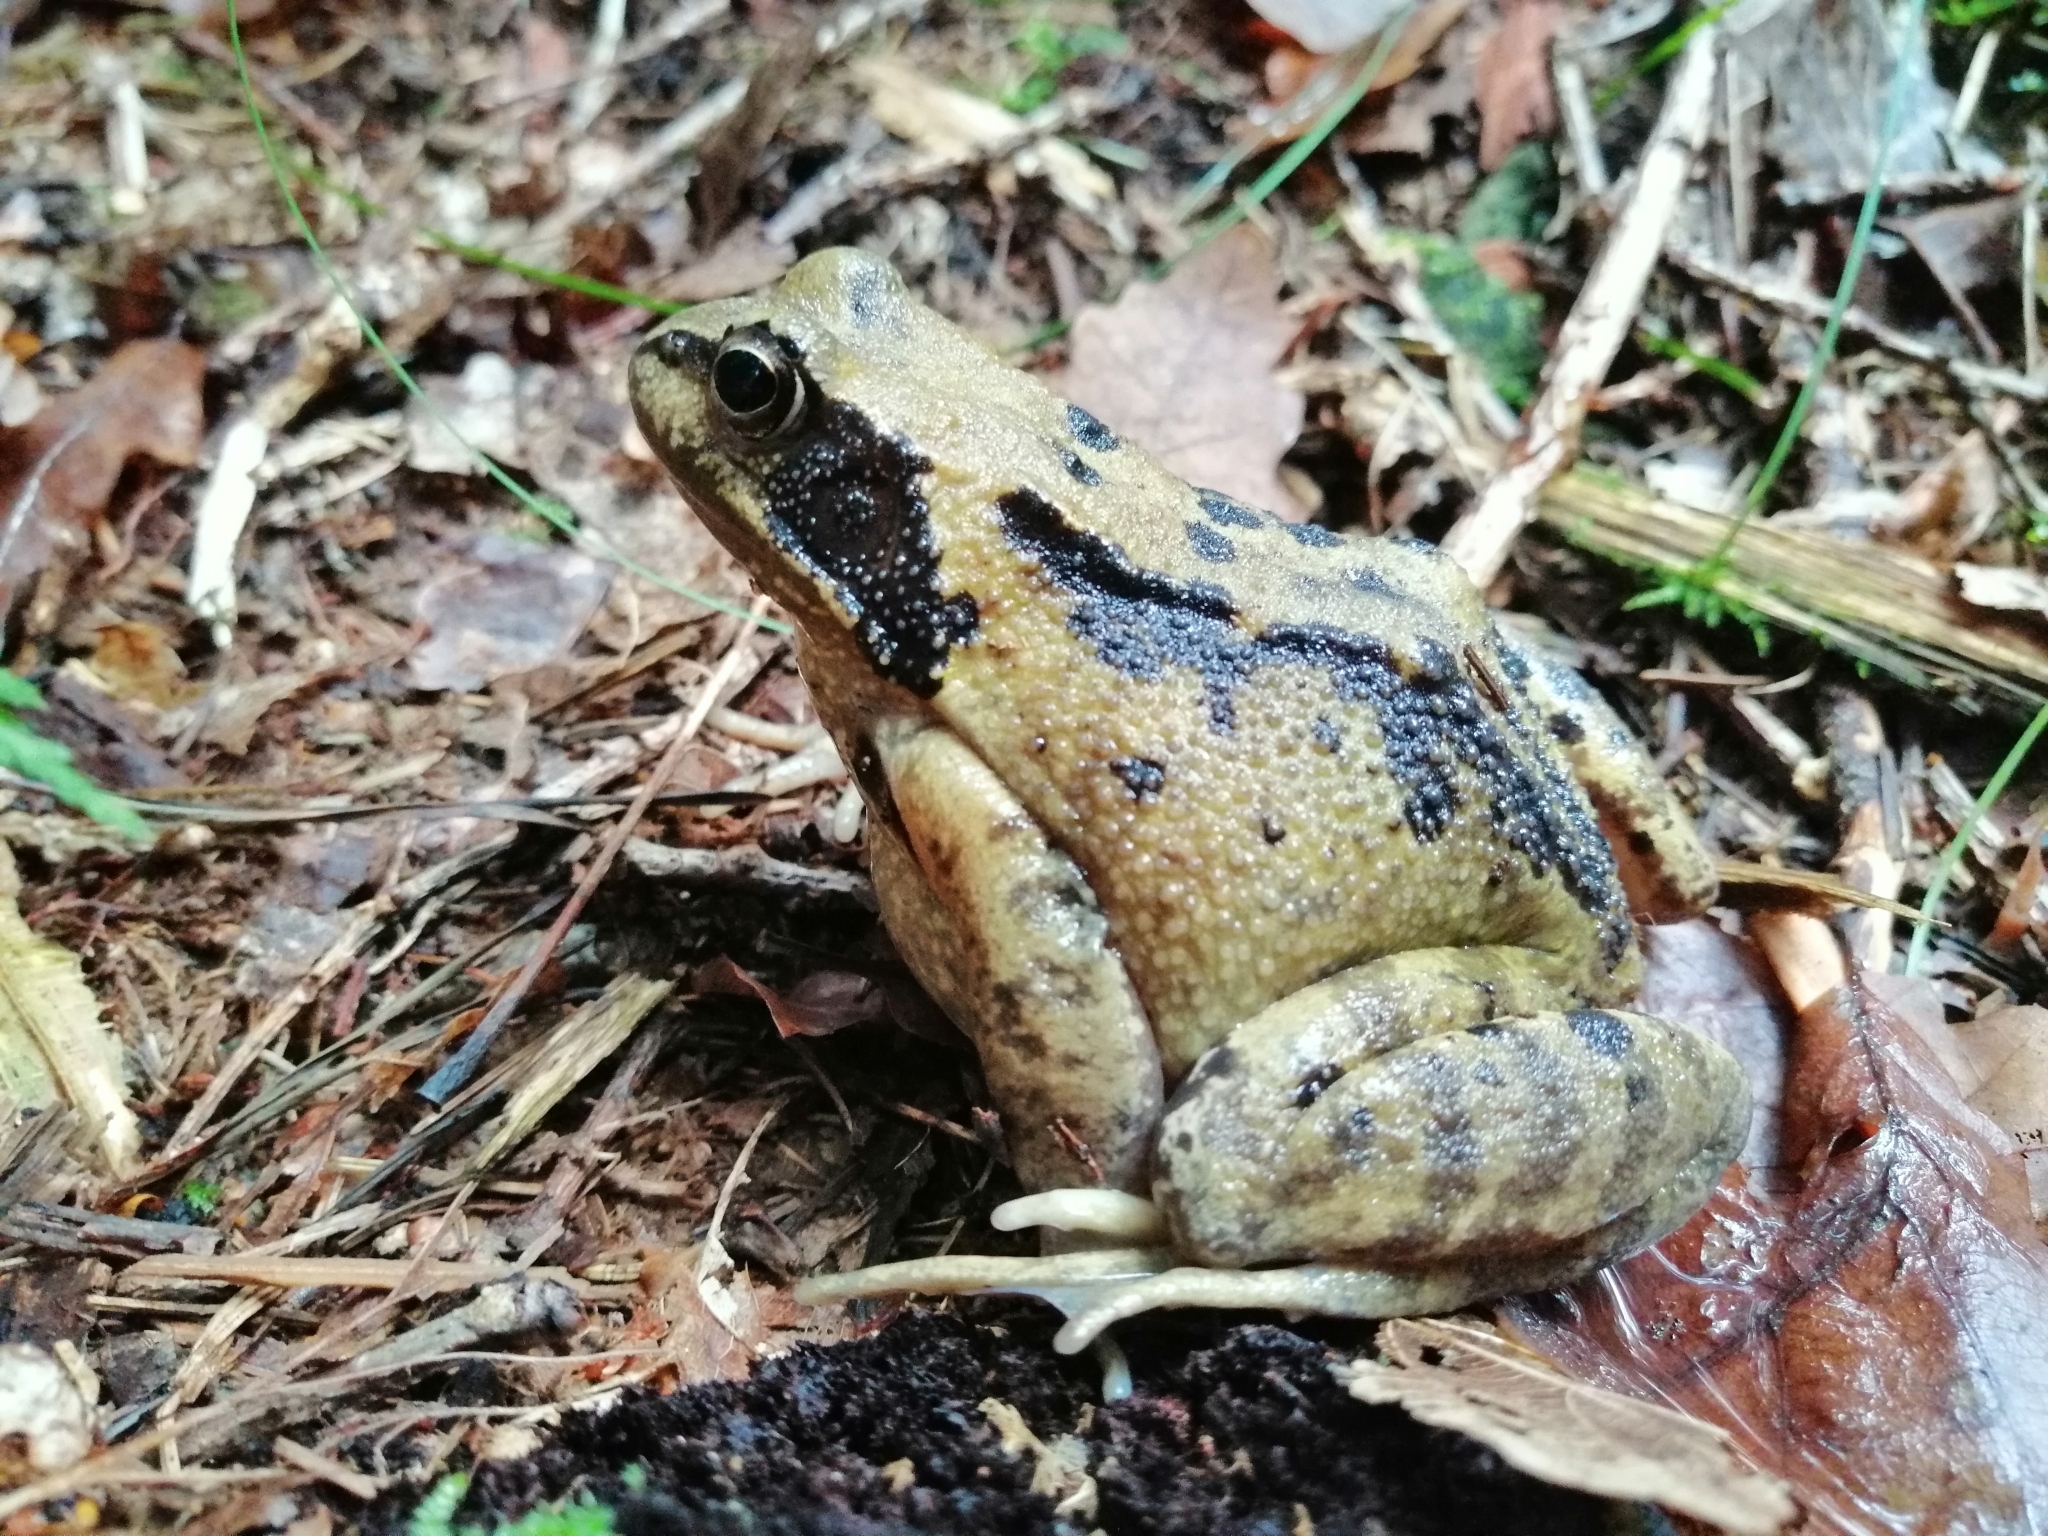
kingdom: Animalia
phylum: Chordata
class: Amphibia
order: Anura
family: Ranidae
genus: Rana
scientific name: Rana temporaria
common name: Common frog
